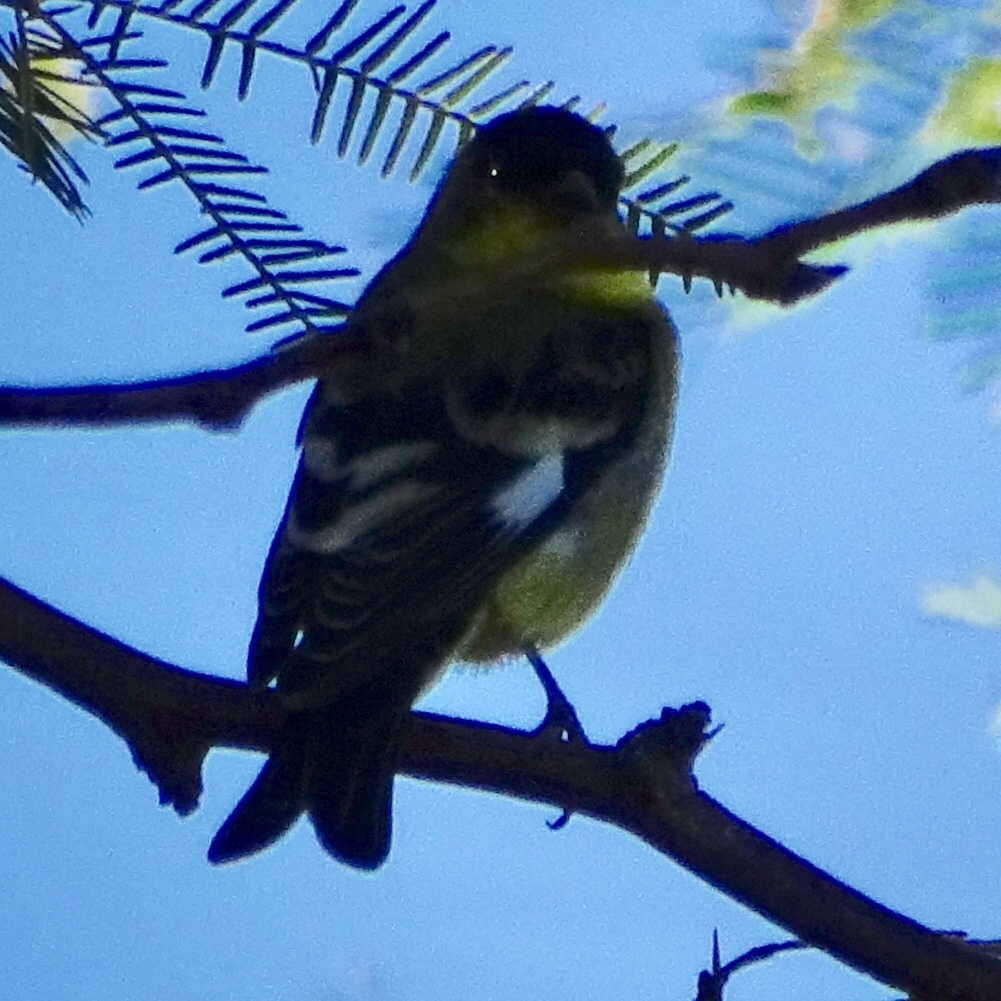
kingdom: Animalia
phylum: Chordata
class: Aves
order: Passeriformes
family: Fringillidae
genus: Spinus
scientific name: Spinus psaltria
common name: Lesser goldfinch
